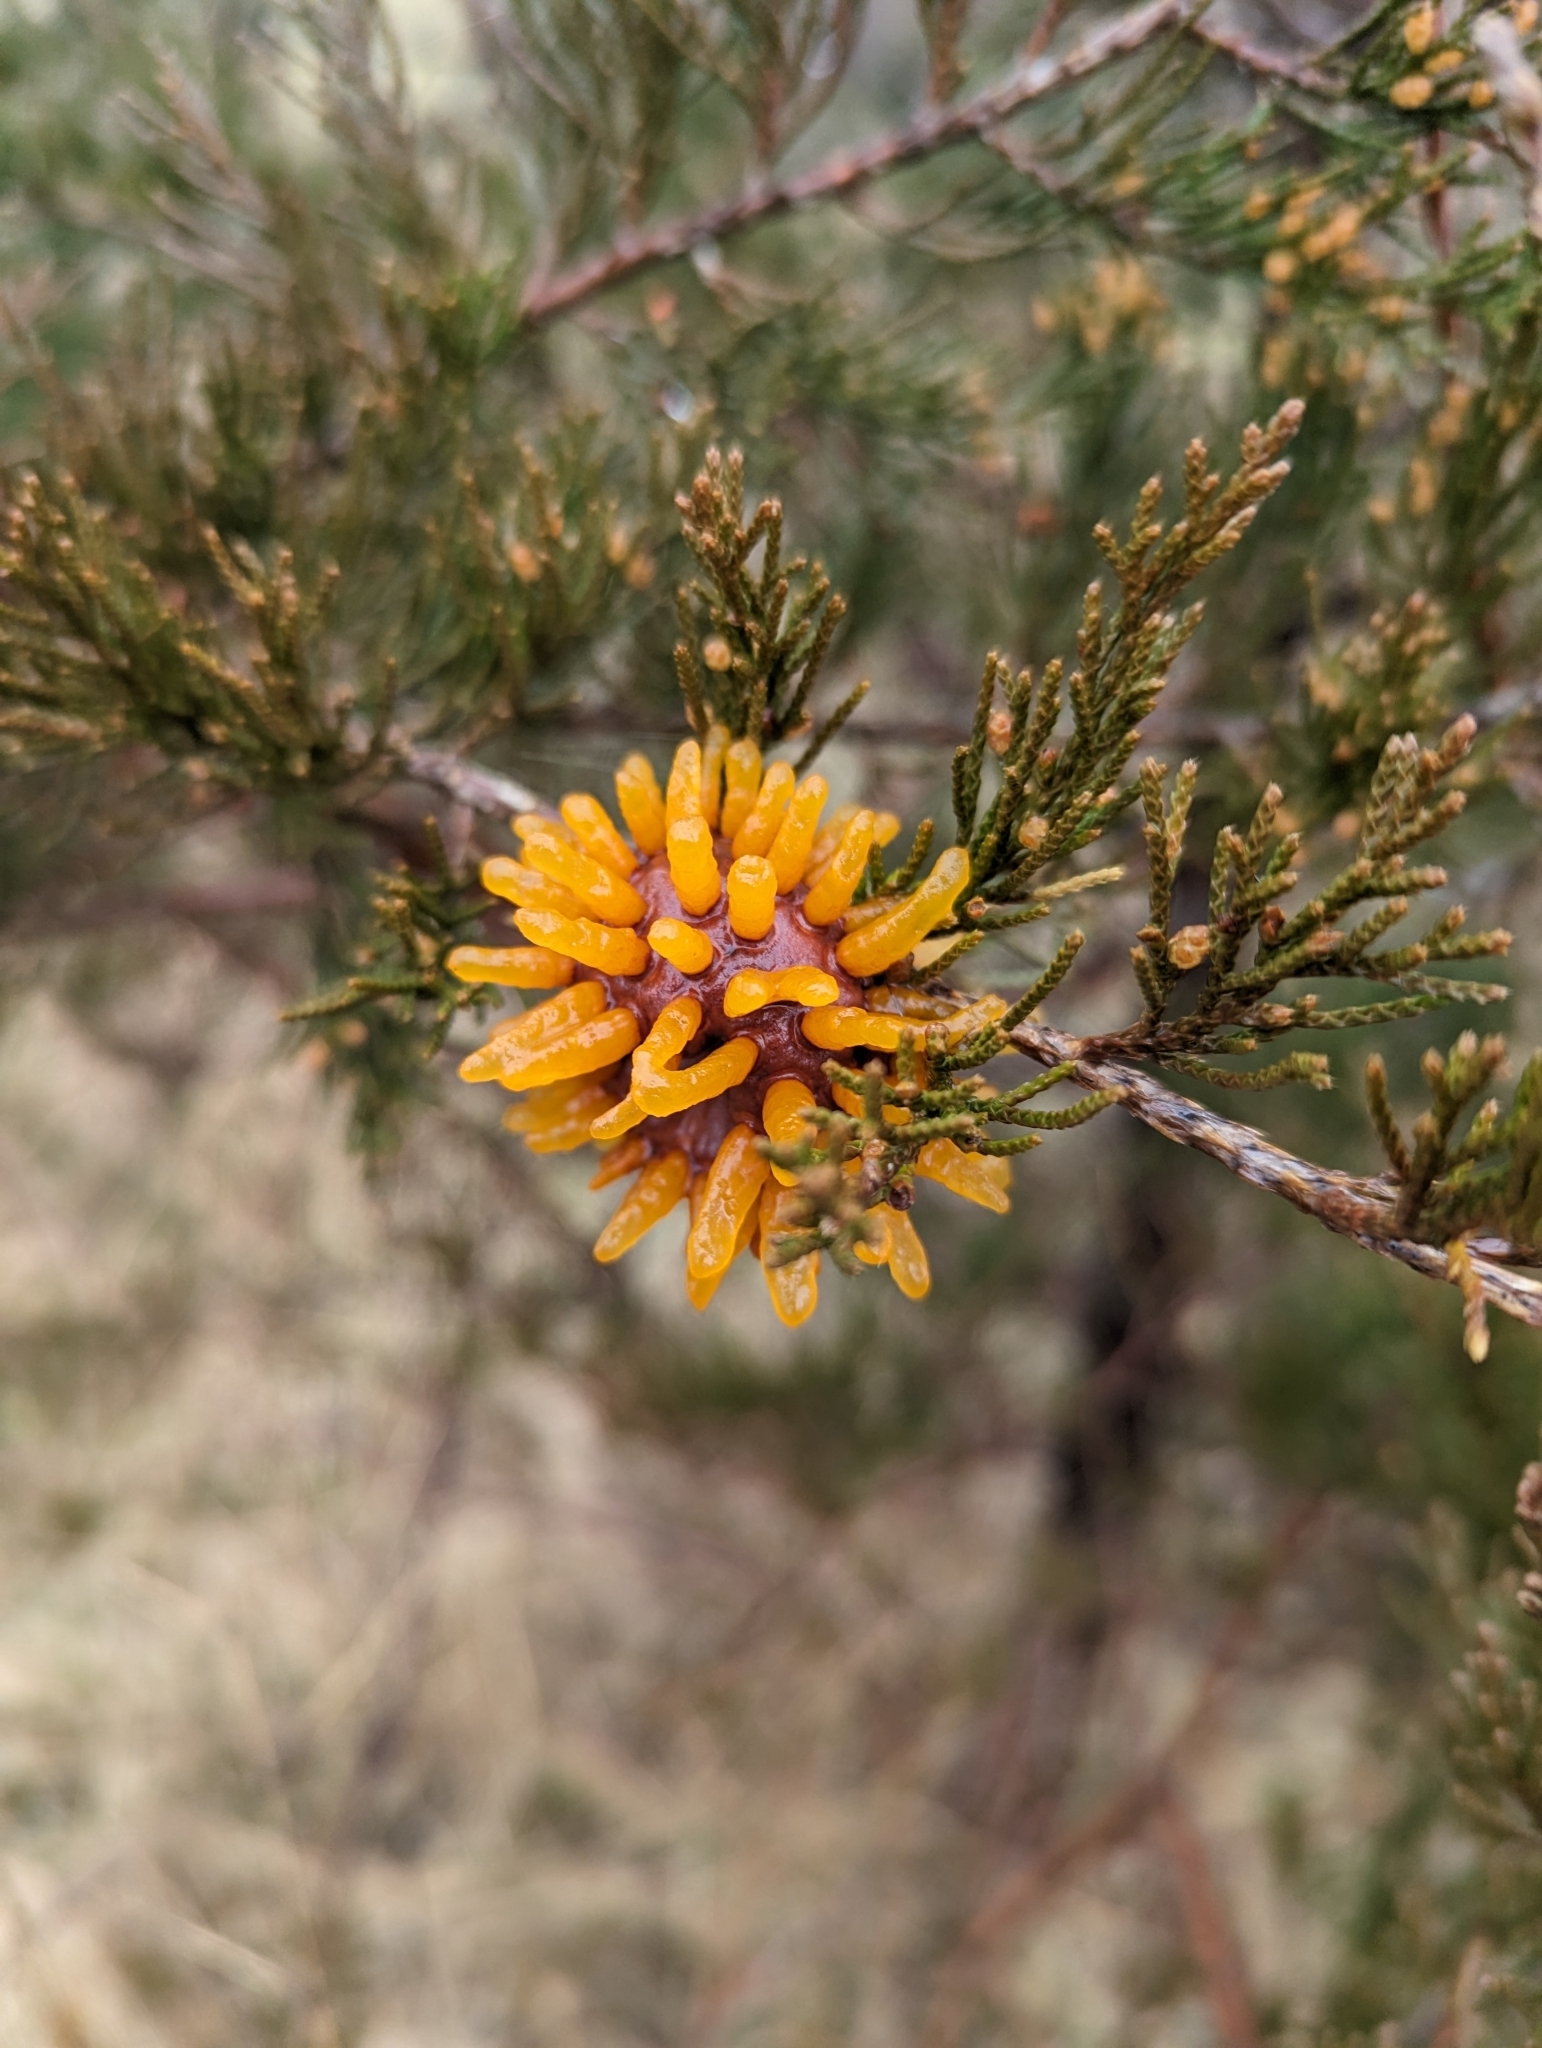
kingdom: Fungi
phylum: Basidiomycota
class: Pucciniomycetes
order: Pucciniales
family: Gymnosporangiaceae
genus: Gymnosporangium
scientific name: Gymnosporangium juniperi-virginianae
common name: Juniper-apple rust
